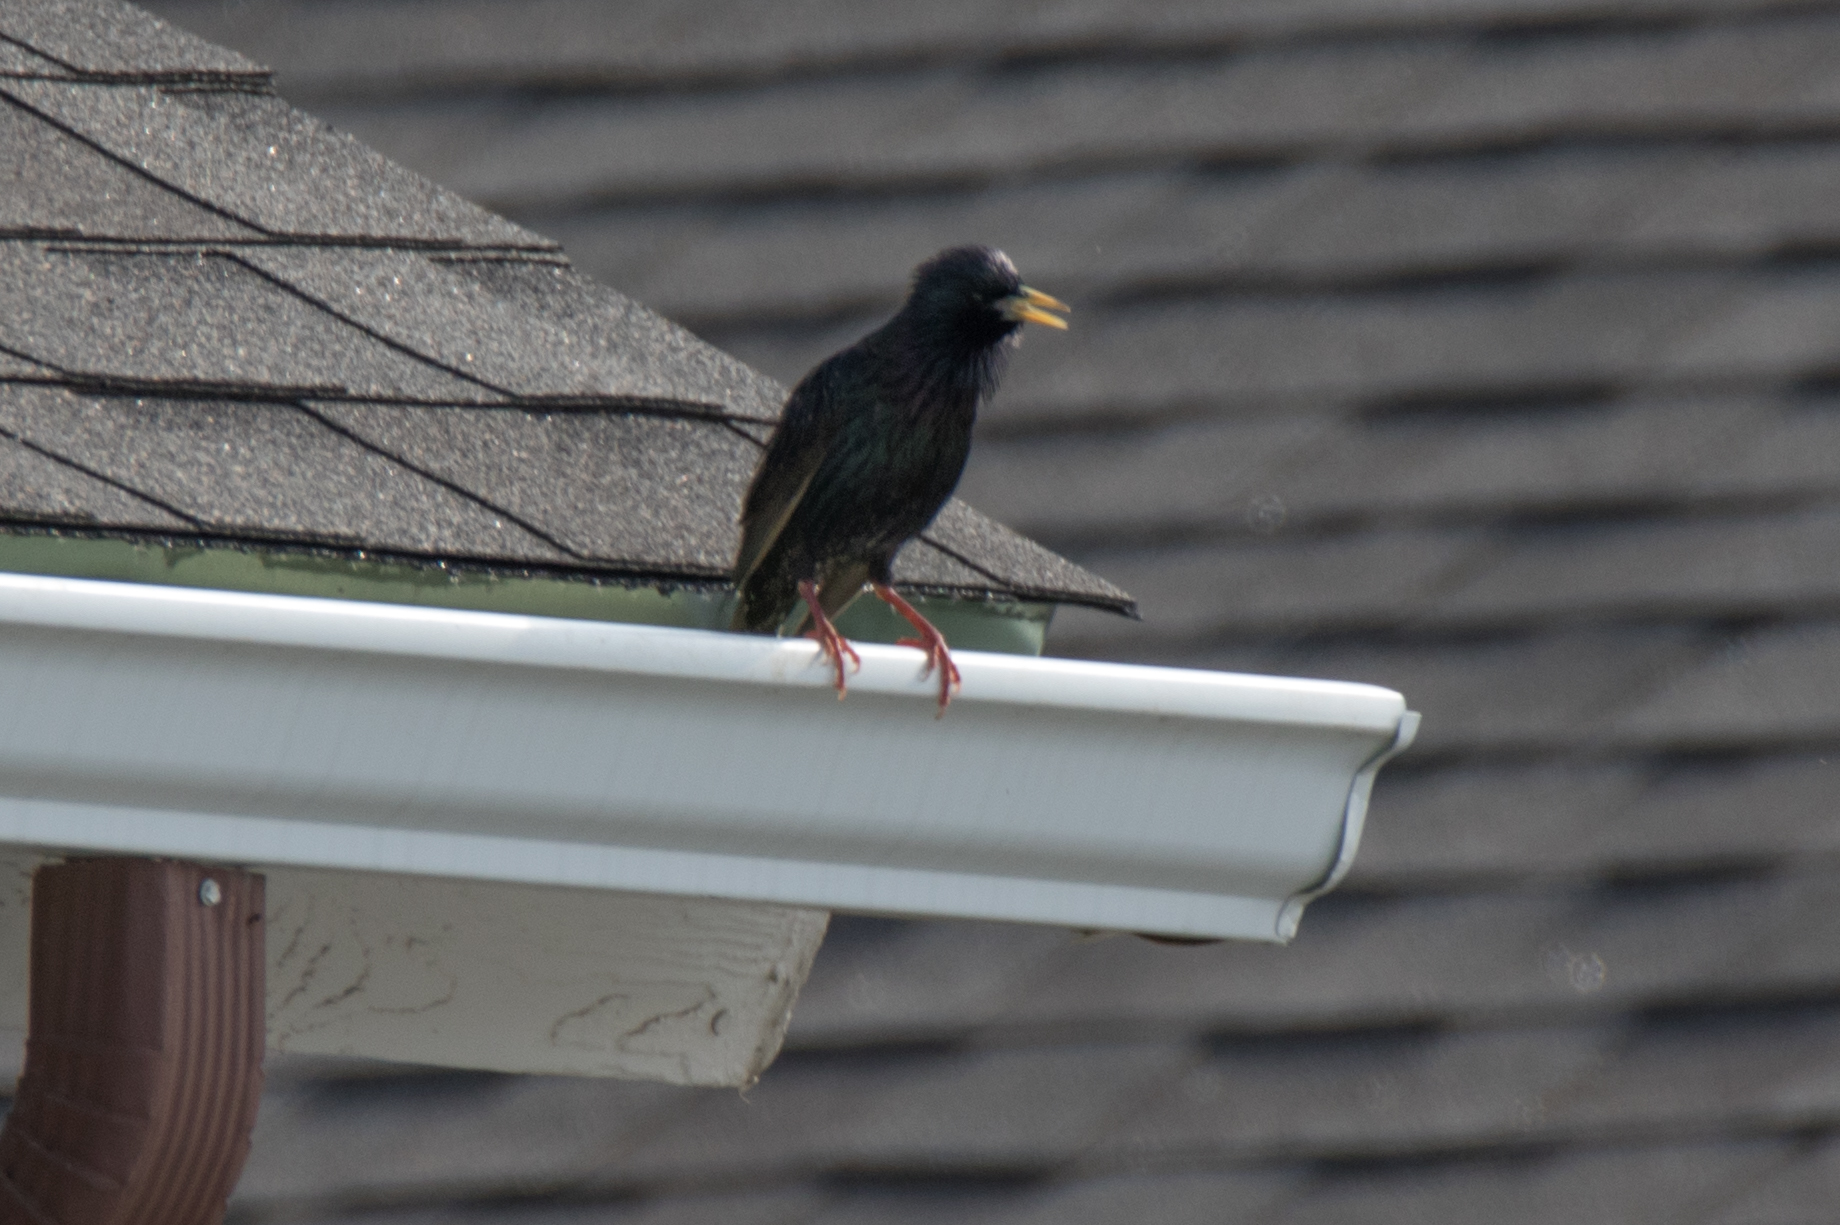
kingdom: Animalia
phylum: Chordata
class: Aves
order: Passeriformes
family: Sturnidae
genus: Sturnus
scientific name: Sturnus vulgaris
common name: Common starling
